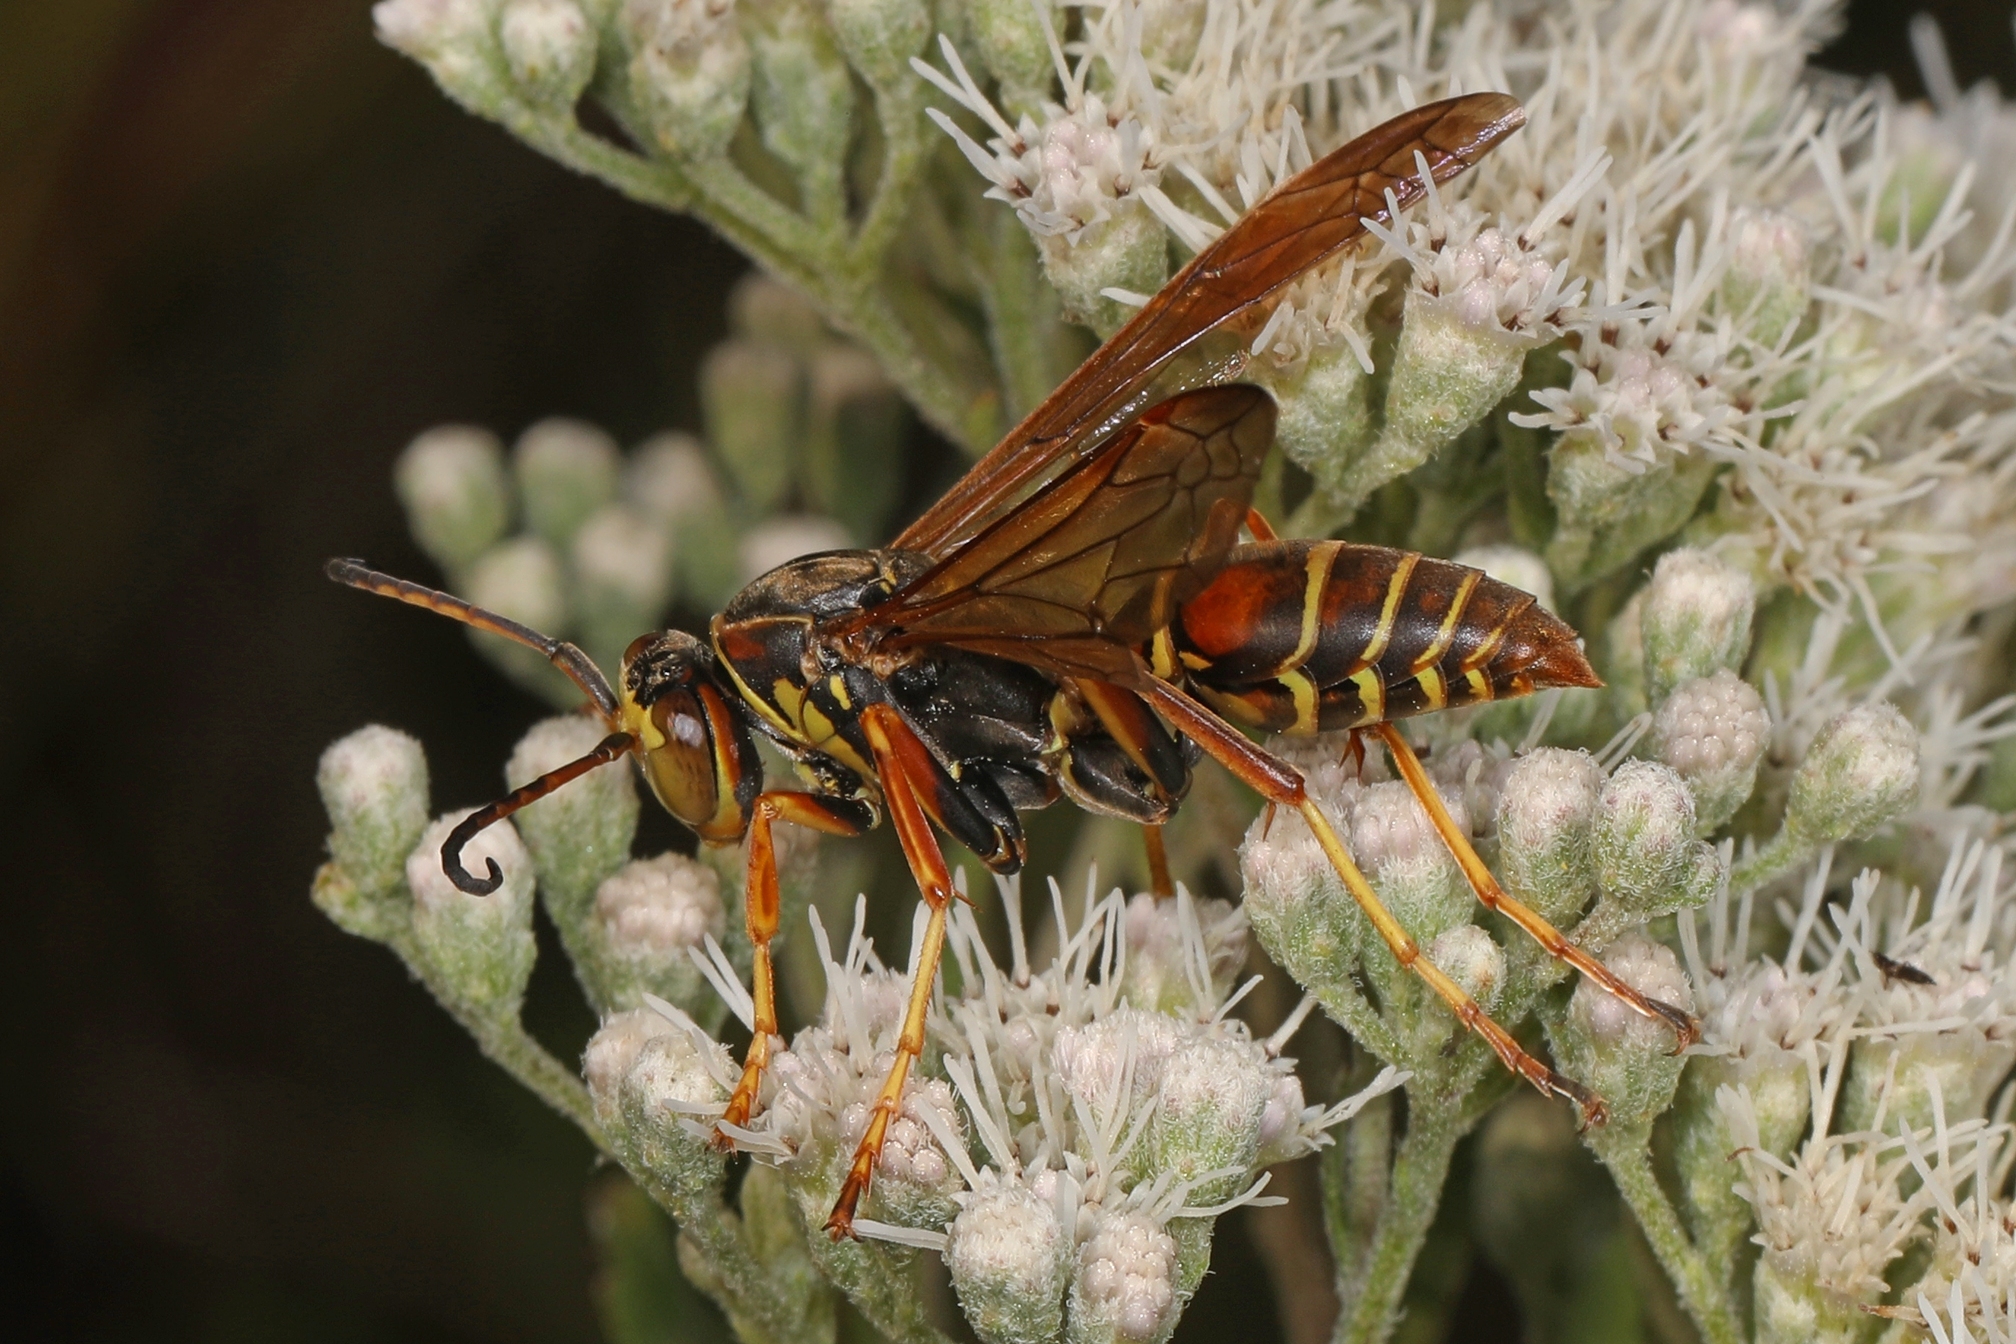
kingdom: Animalia
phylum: Arthropoda
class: Insecta
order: Hymenoptera
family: Eumenidae
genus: Polistes
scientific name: Polistes fuscatus
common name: Dark paper wasp
